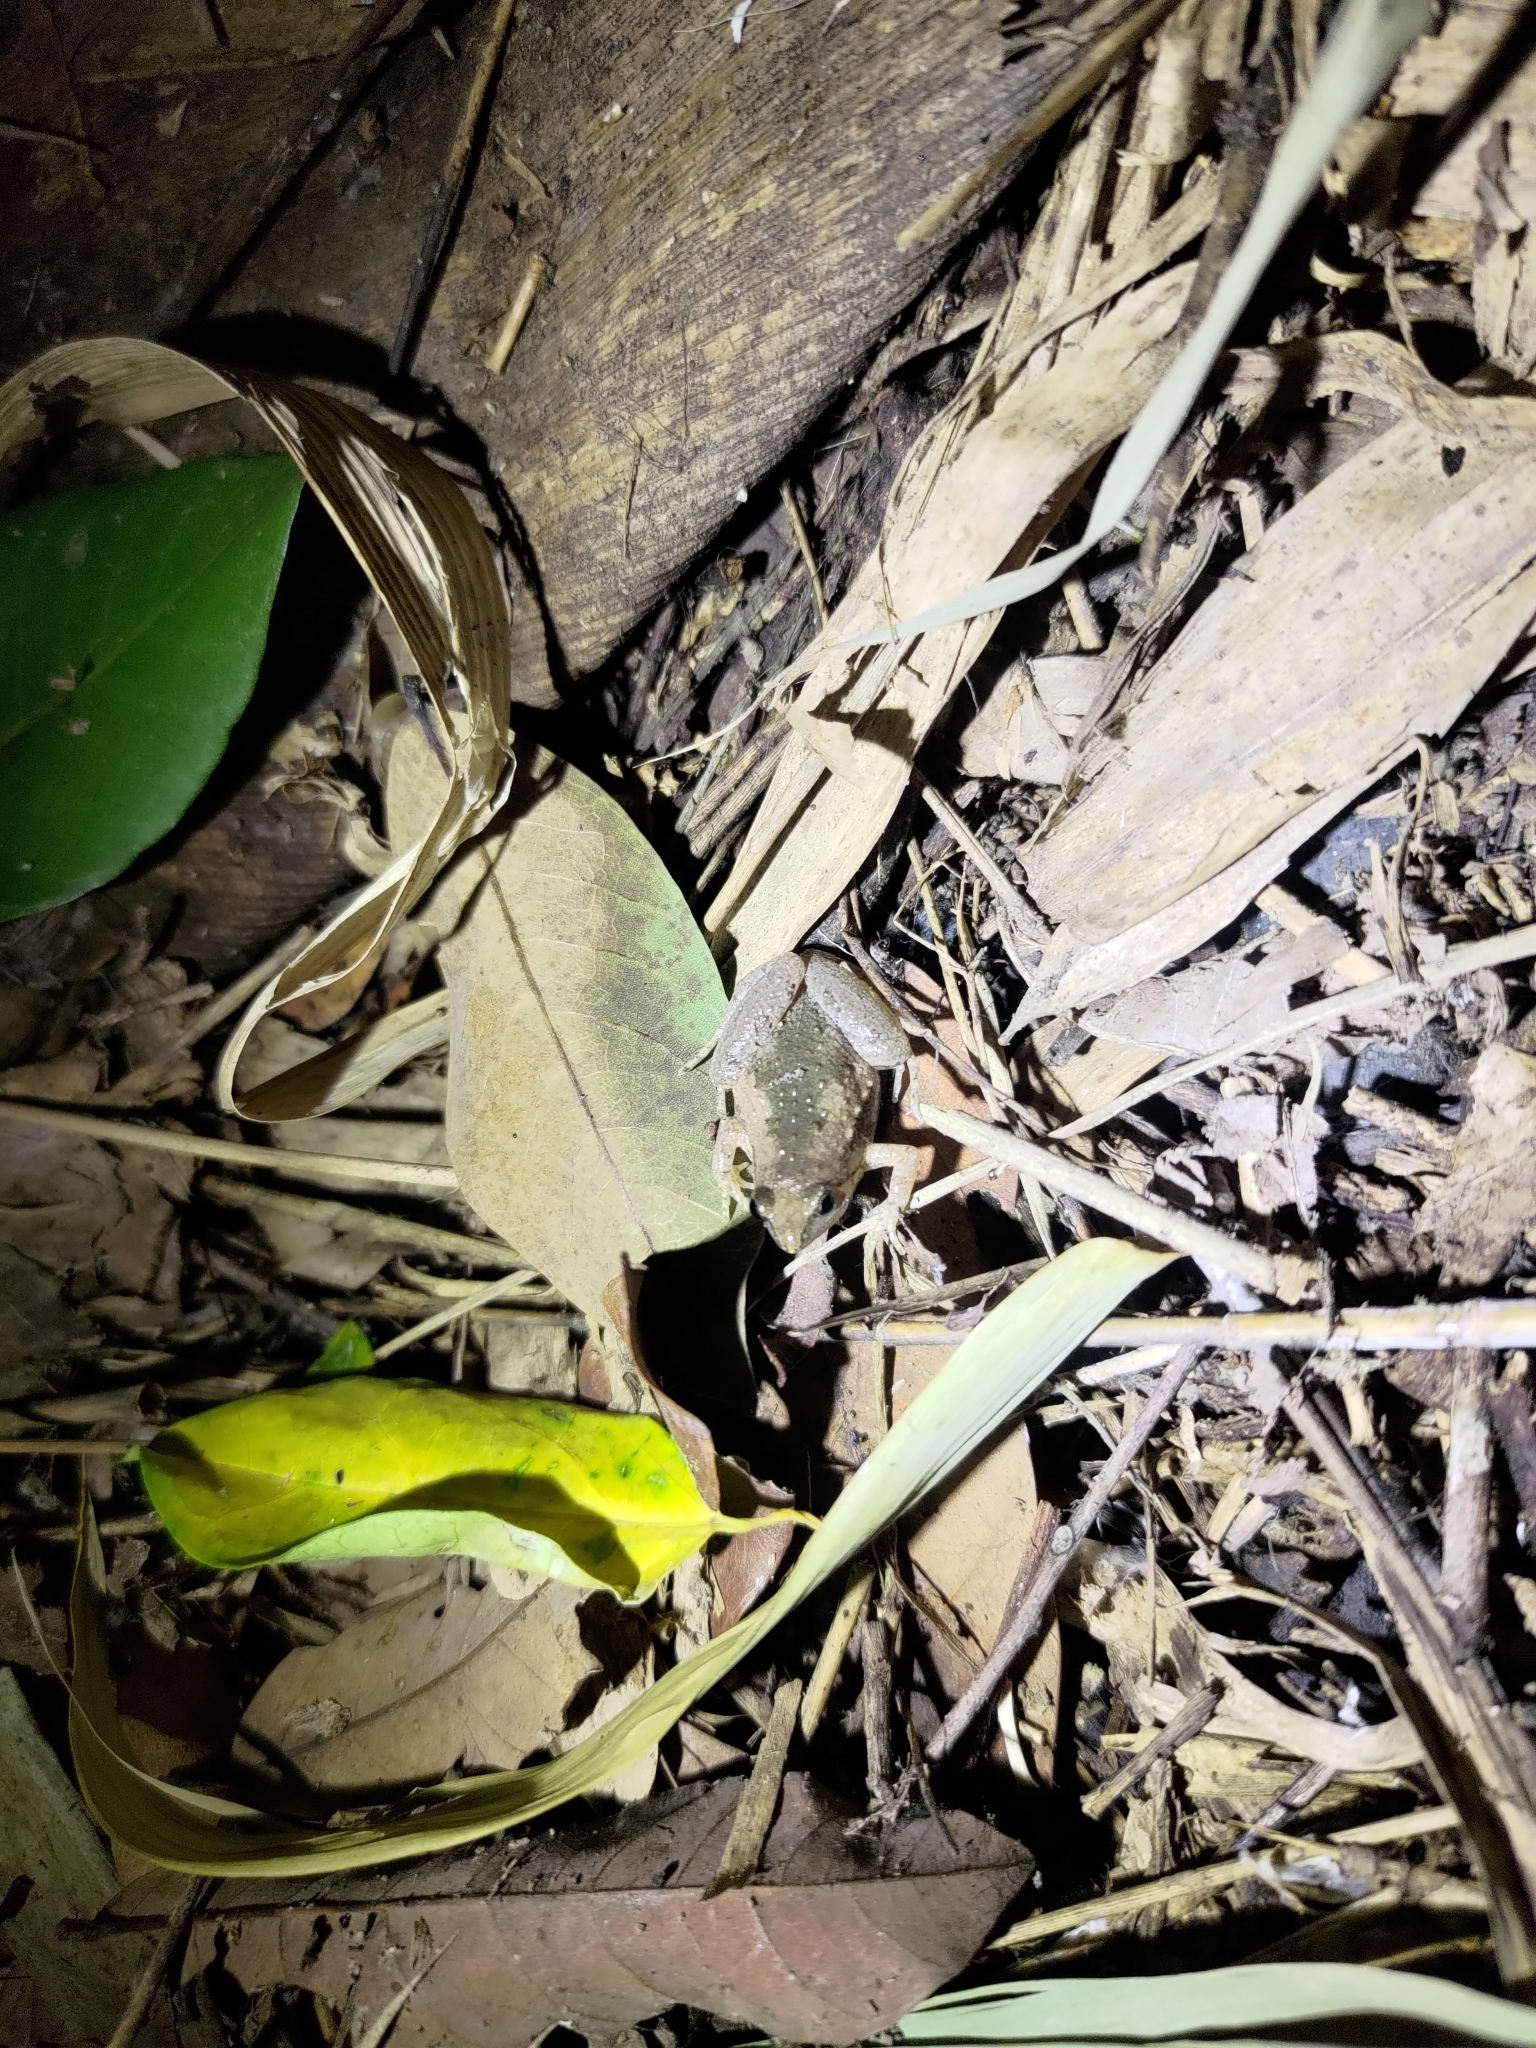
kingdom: Animalia
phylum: Chordata
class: Amphibia
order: Anura
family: Microhylidae
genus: Microhyla
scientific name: Microhyla fissipes
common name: Ornate narrow-mouthed frog
